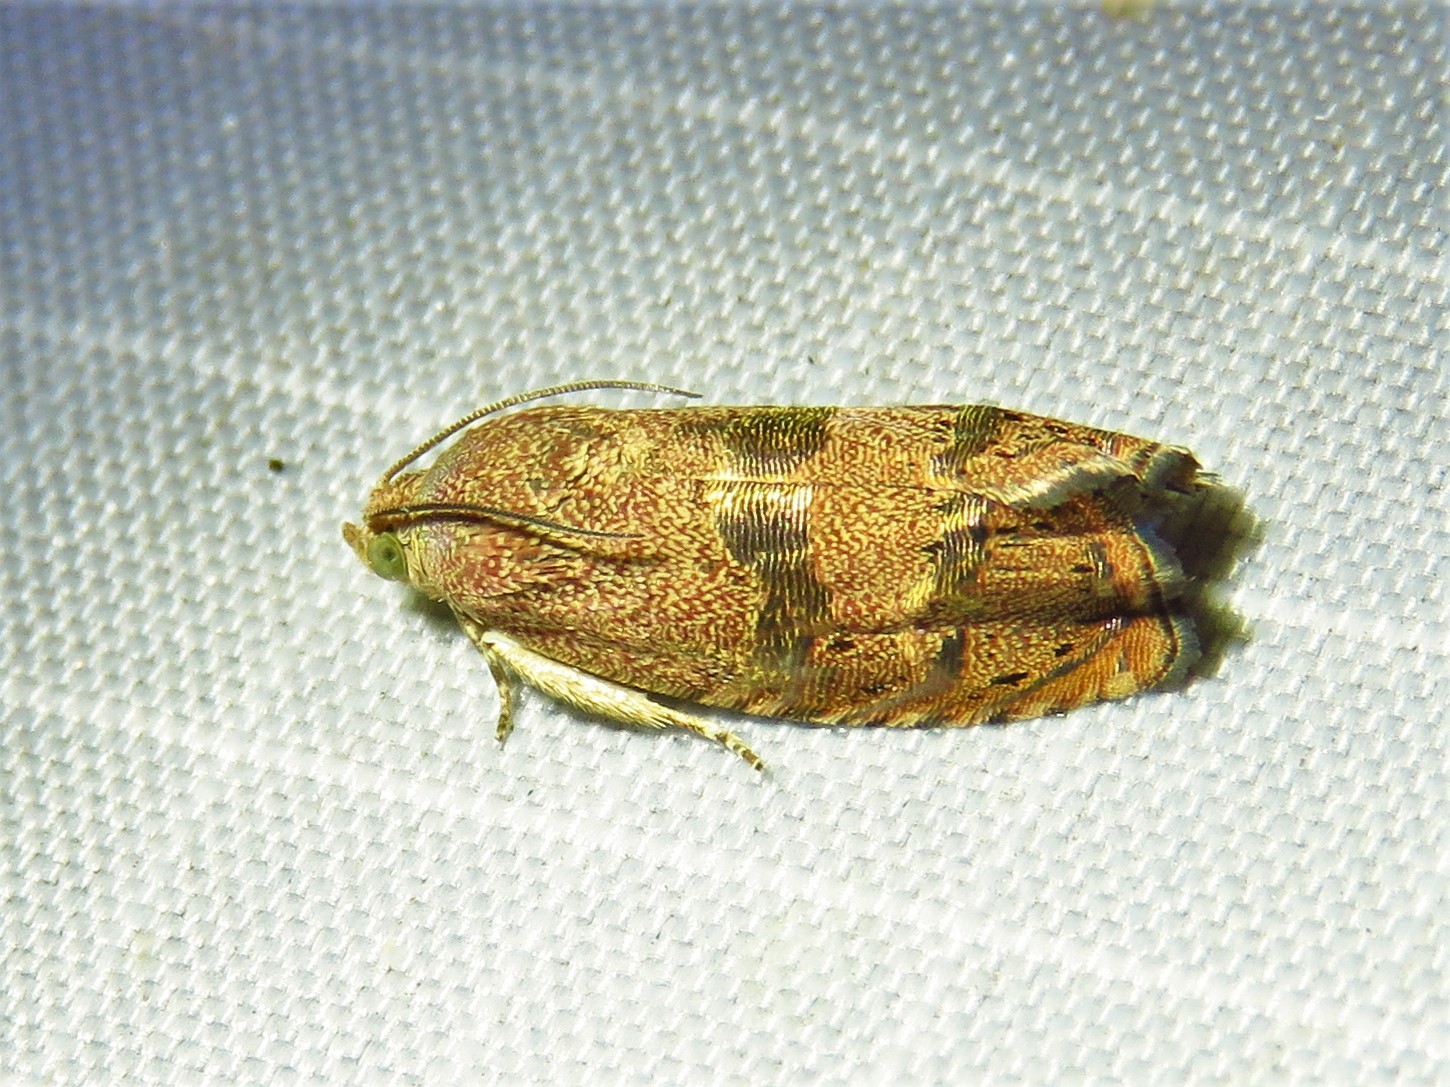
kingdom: Animalia
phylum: Arthropoda
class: Insecta
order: Lepidoptera
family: Tortricidae
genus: Cydia
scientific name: Cydia latiferreana
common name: Filbertworm moth
